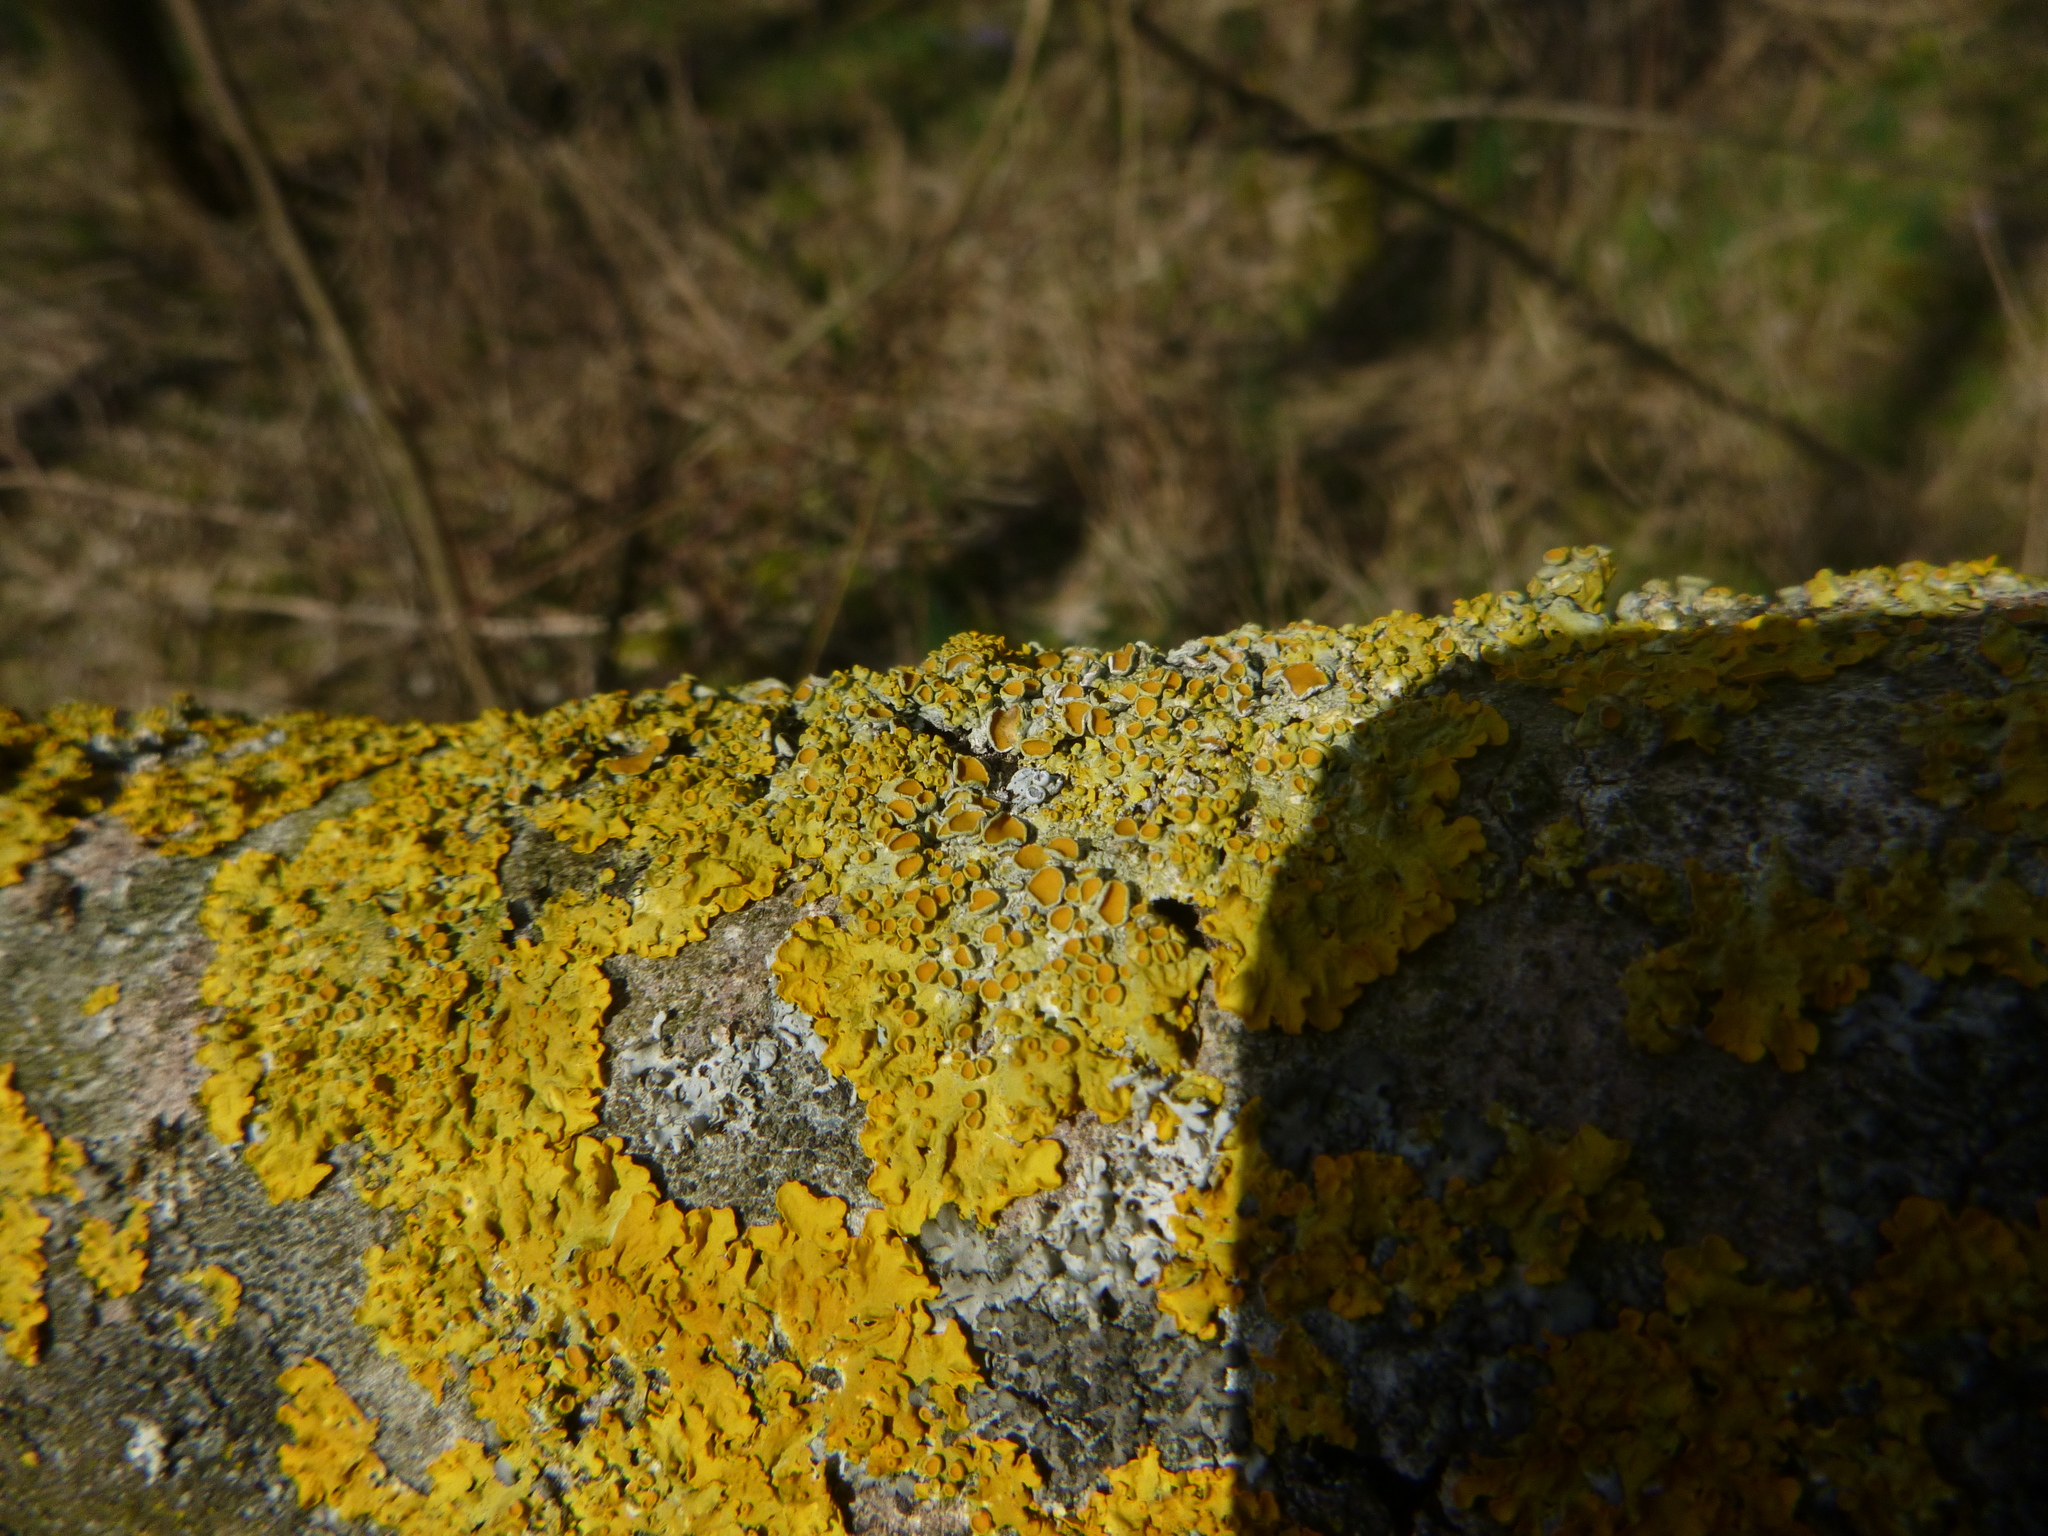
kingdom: Fungi
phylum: Ascomycota
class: Lecanoromycetes
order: Teloschistales
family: Teloschistaceae
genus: Xanthoria
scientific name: Xanthoria parietina
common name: Common orange lichen
